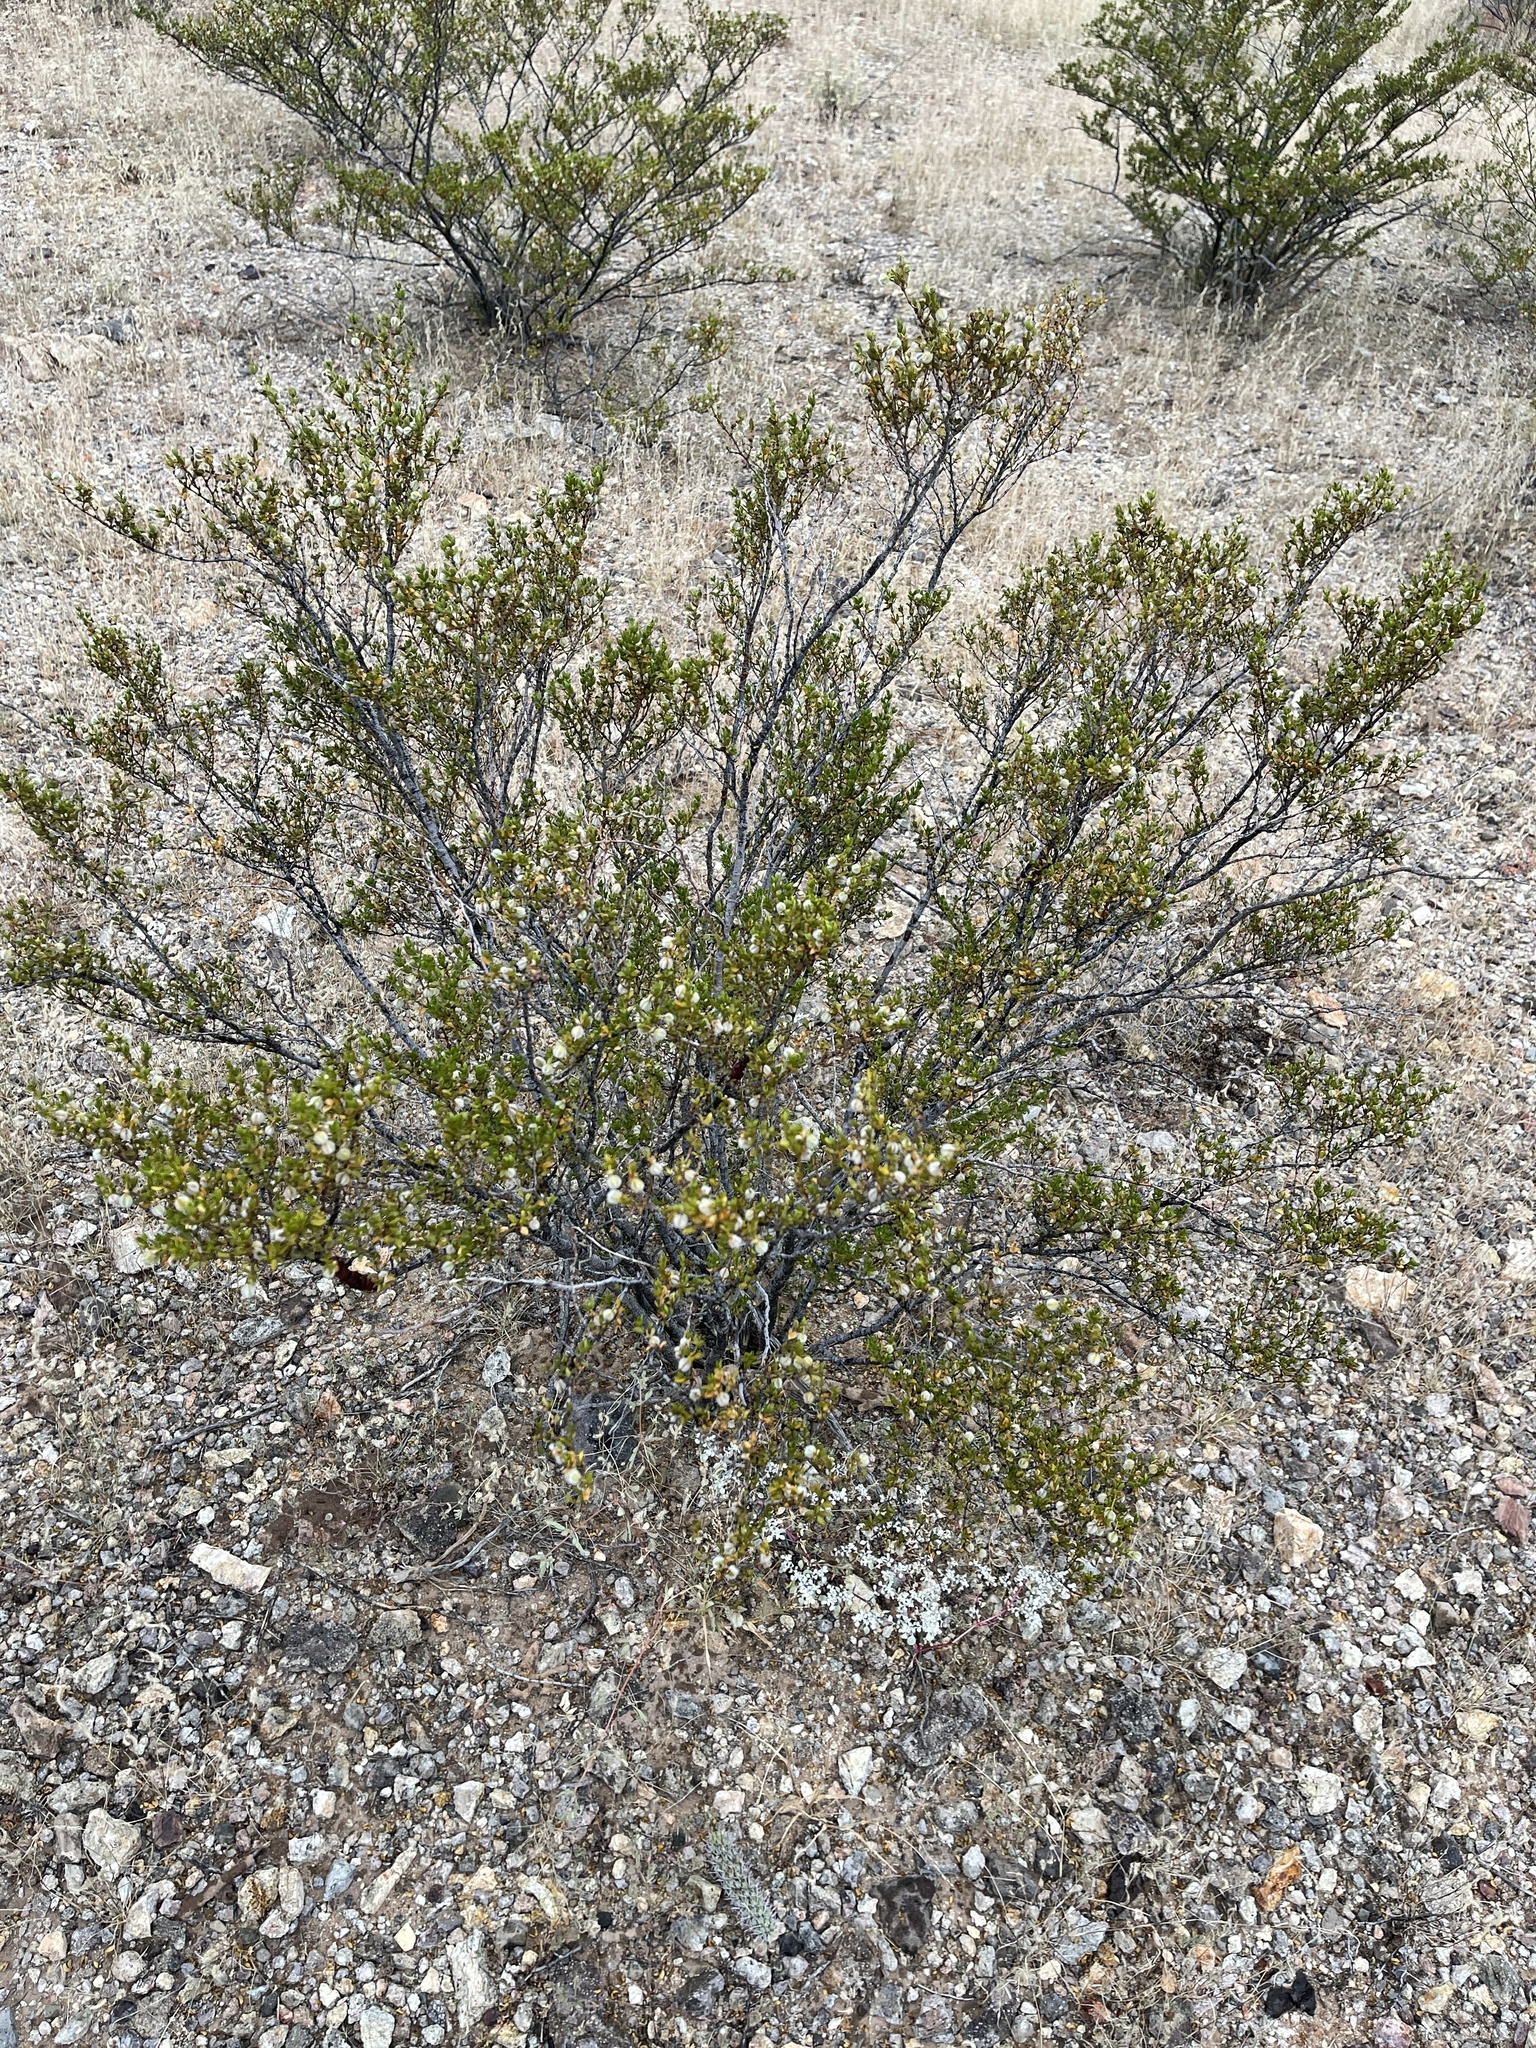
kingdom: Plantae
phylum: Tracheophyta
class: Magnoliopsida
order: Zygophyllales
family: Zygophyllaceae
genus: Larrea
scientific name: Larrea tridentata
